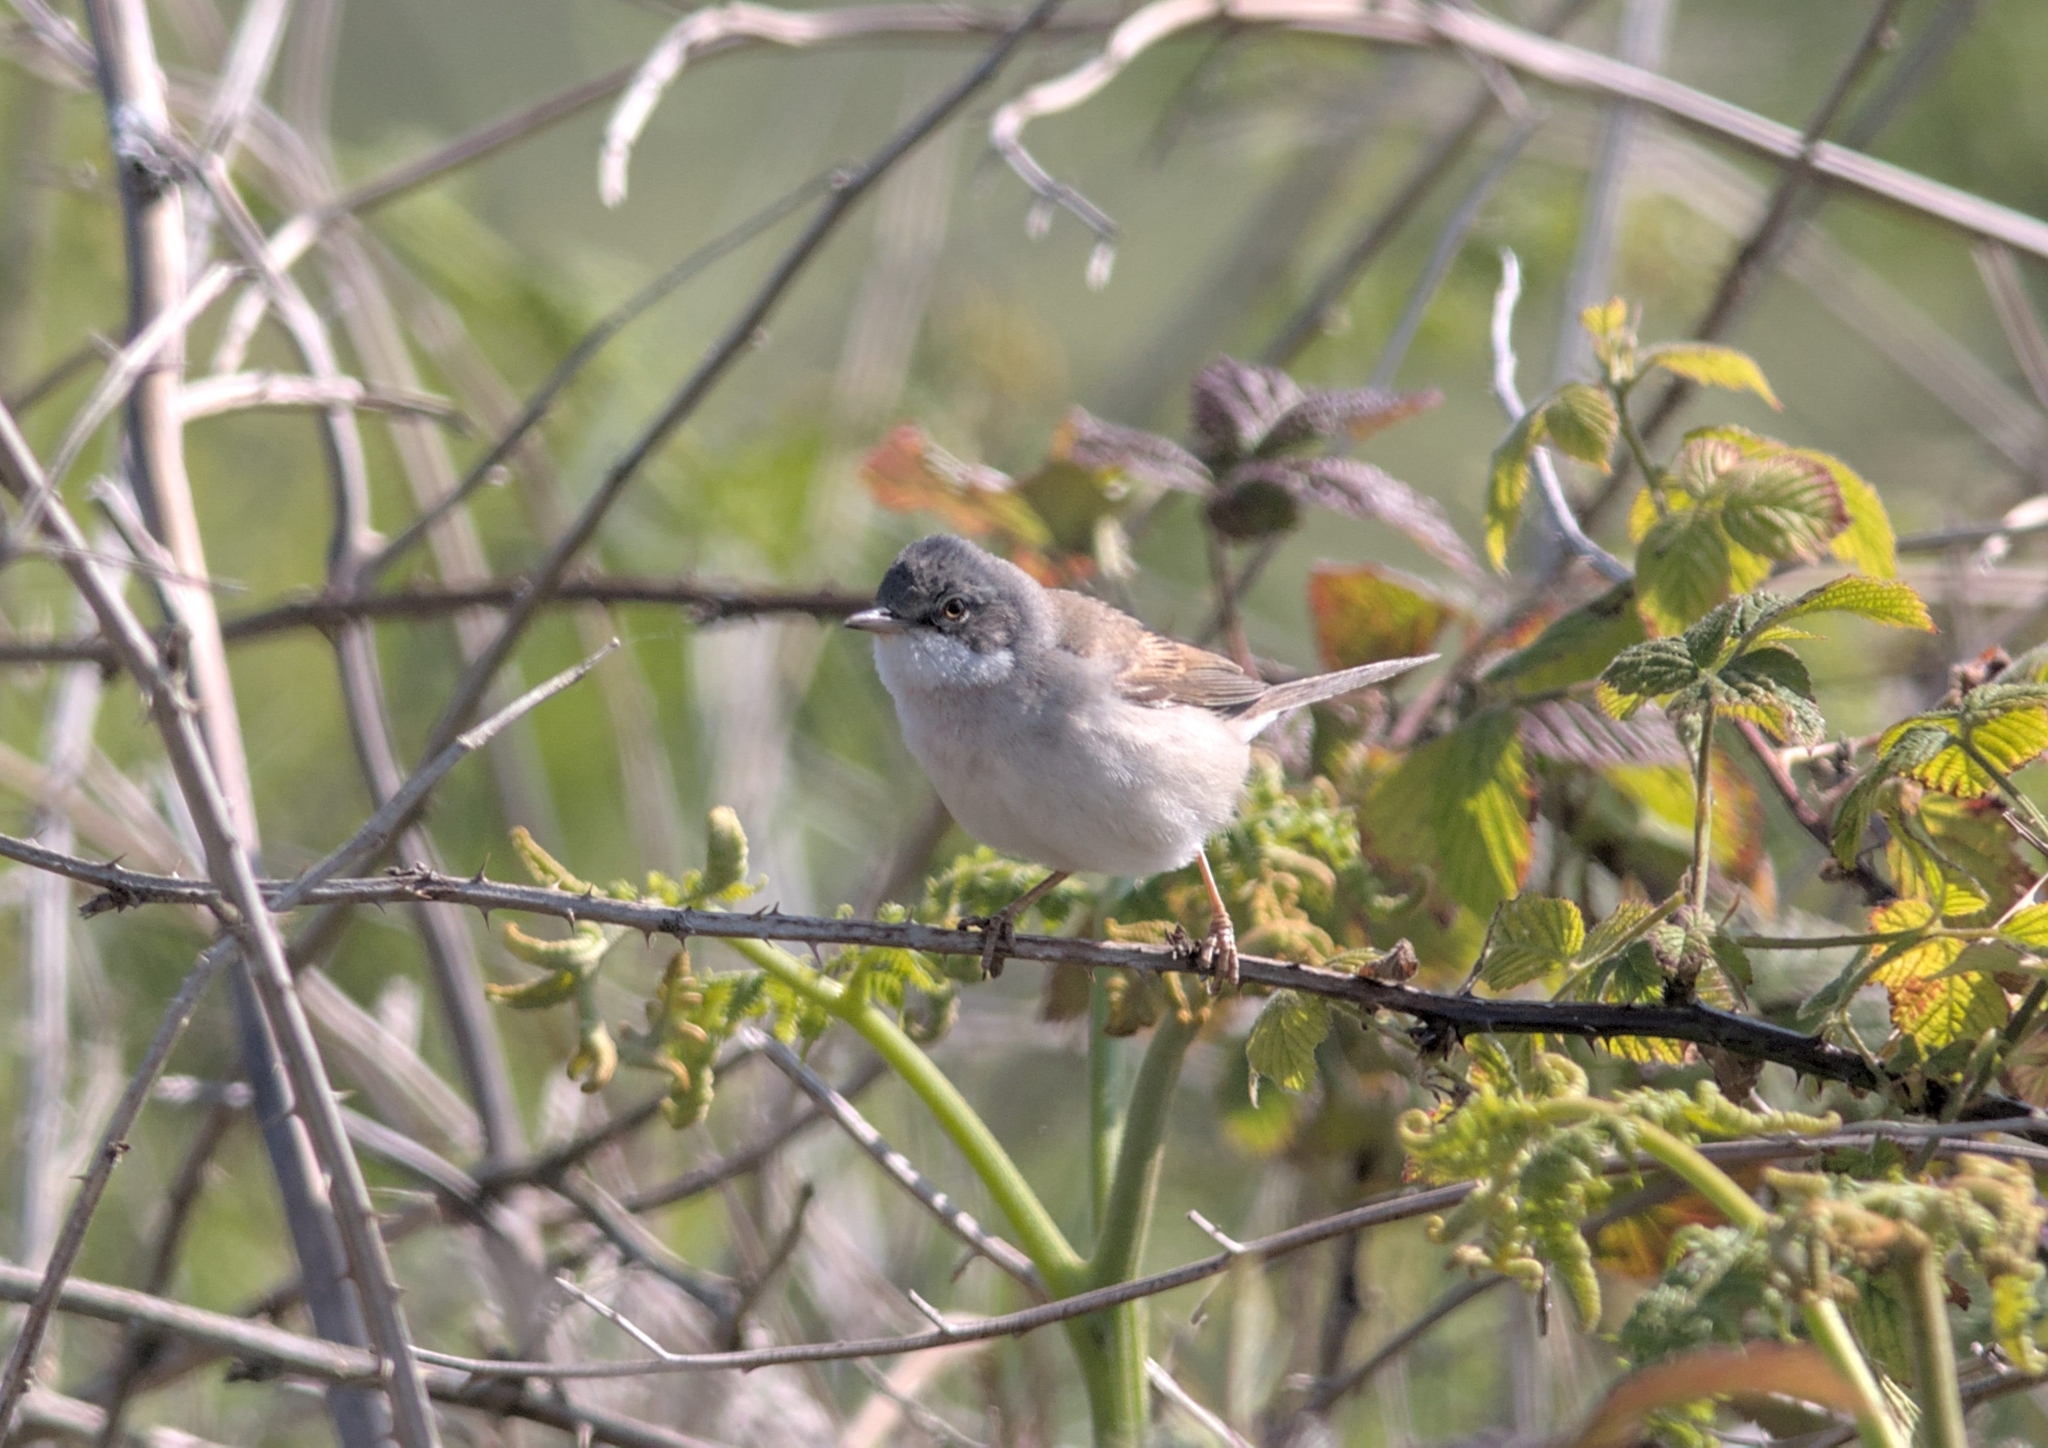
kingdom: Animalia
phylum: Chordata
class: Aves
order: Passeriformes
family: Sylviidae
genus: Sylvia
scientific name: Sylvia communis
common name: Common whitethroat
